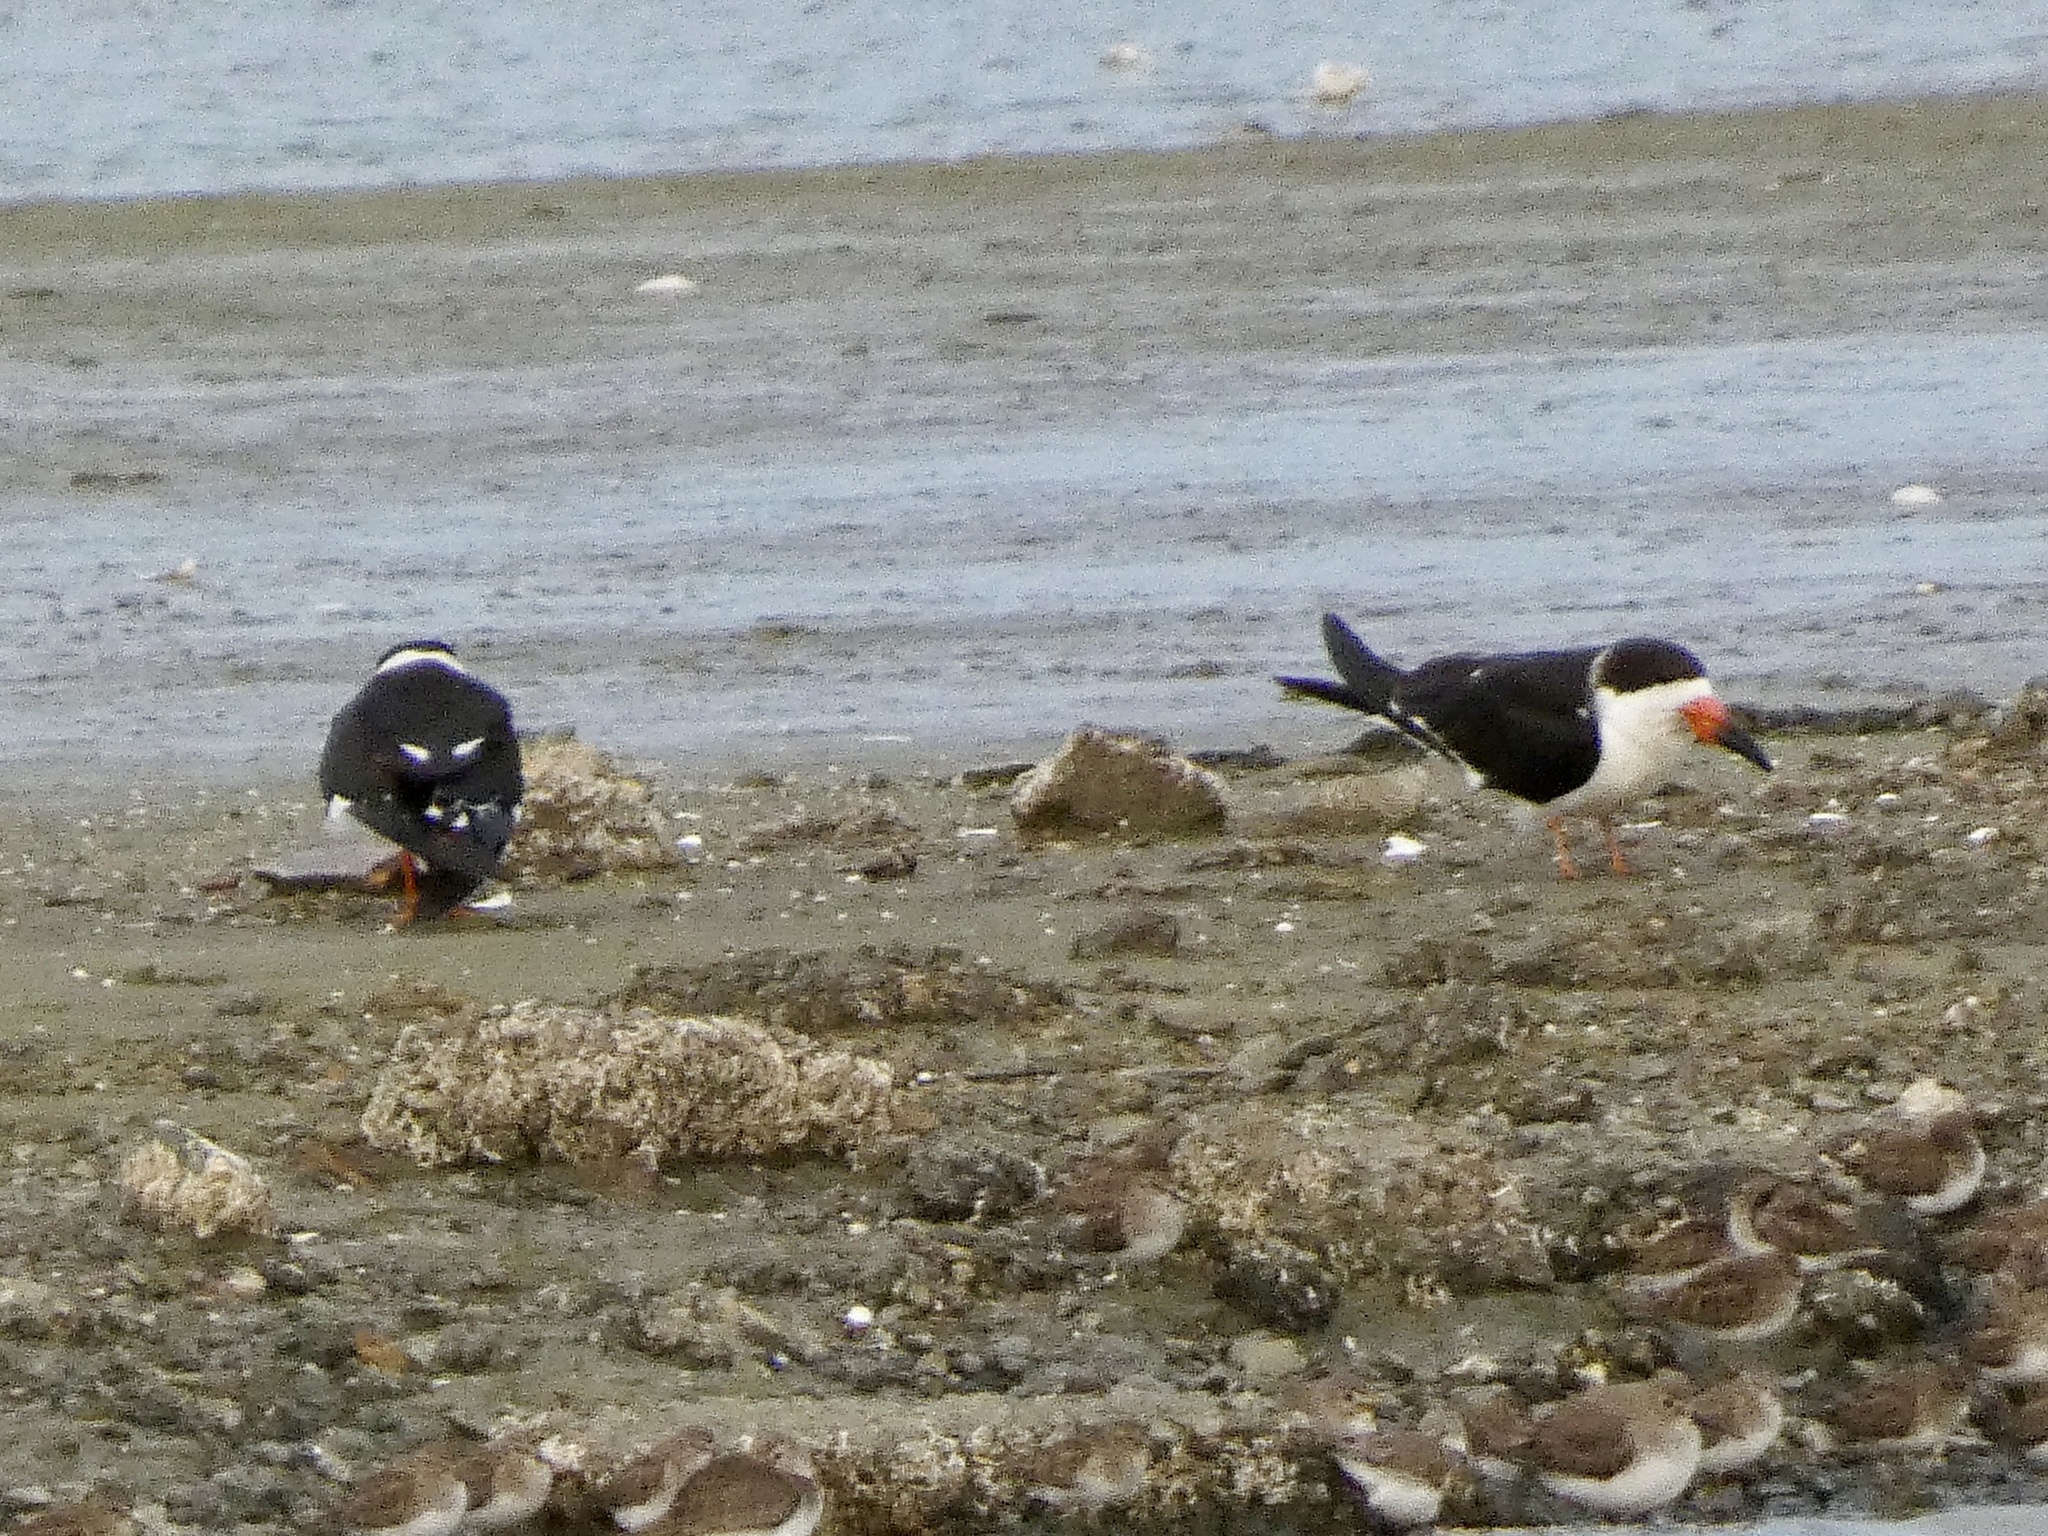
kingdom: Animalia
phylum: Chordata
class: Aves
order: Charadriiformes
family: Laridae
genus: Rynchops
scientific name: Rynchops niger
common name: Black skimmer
